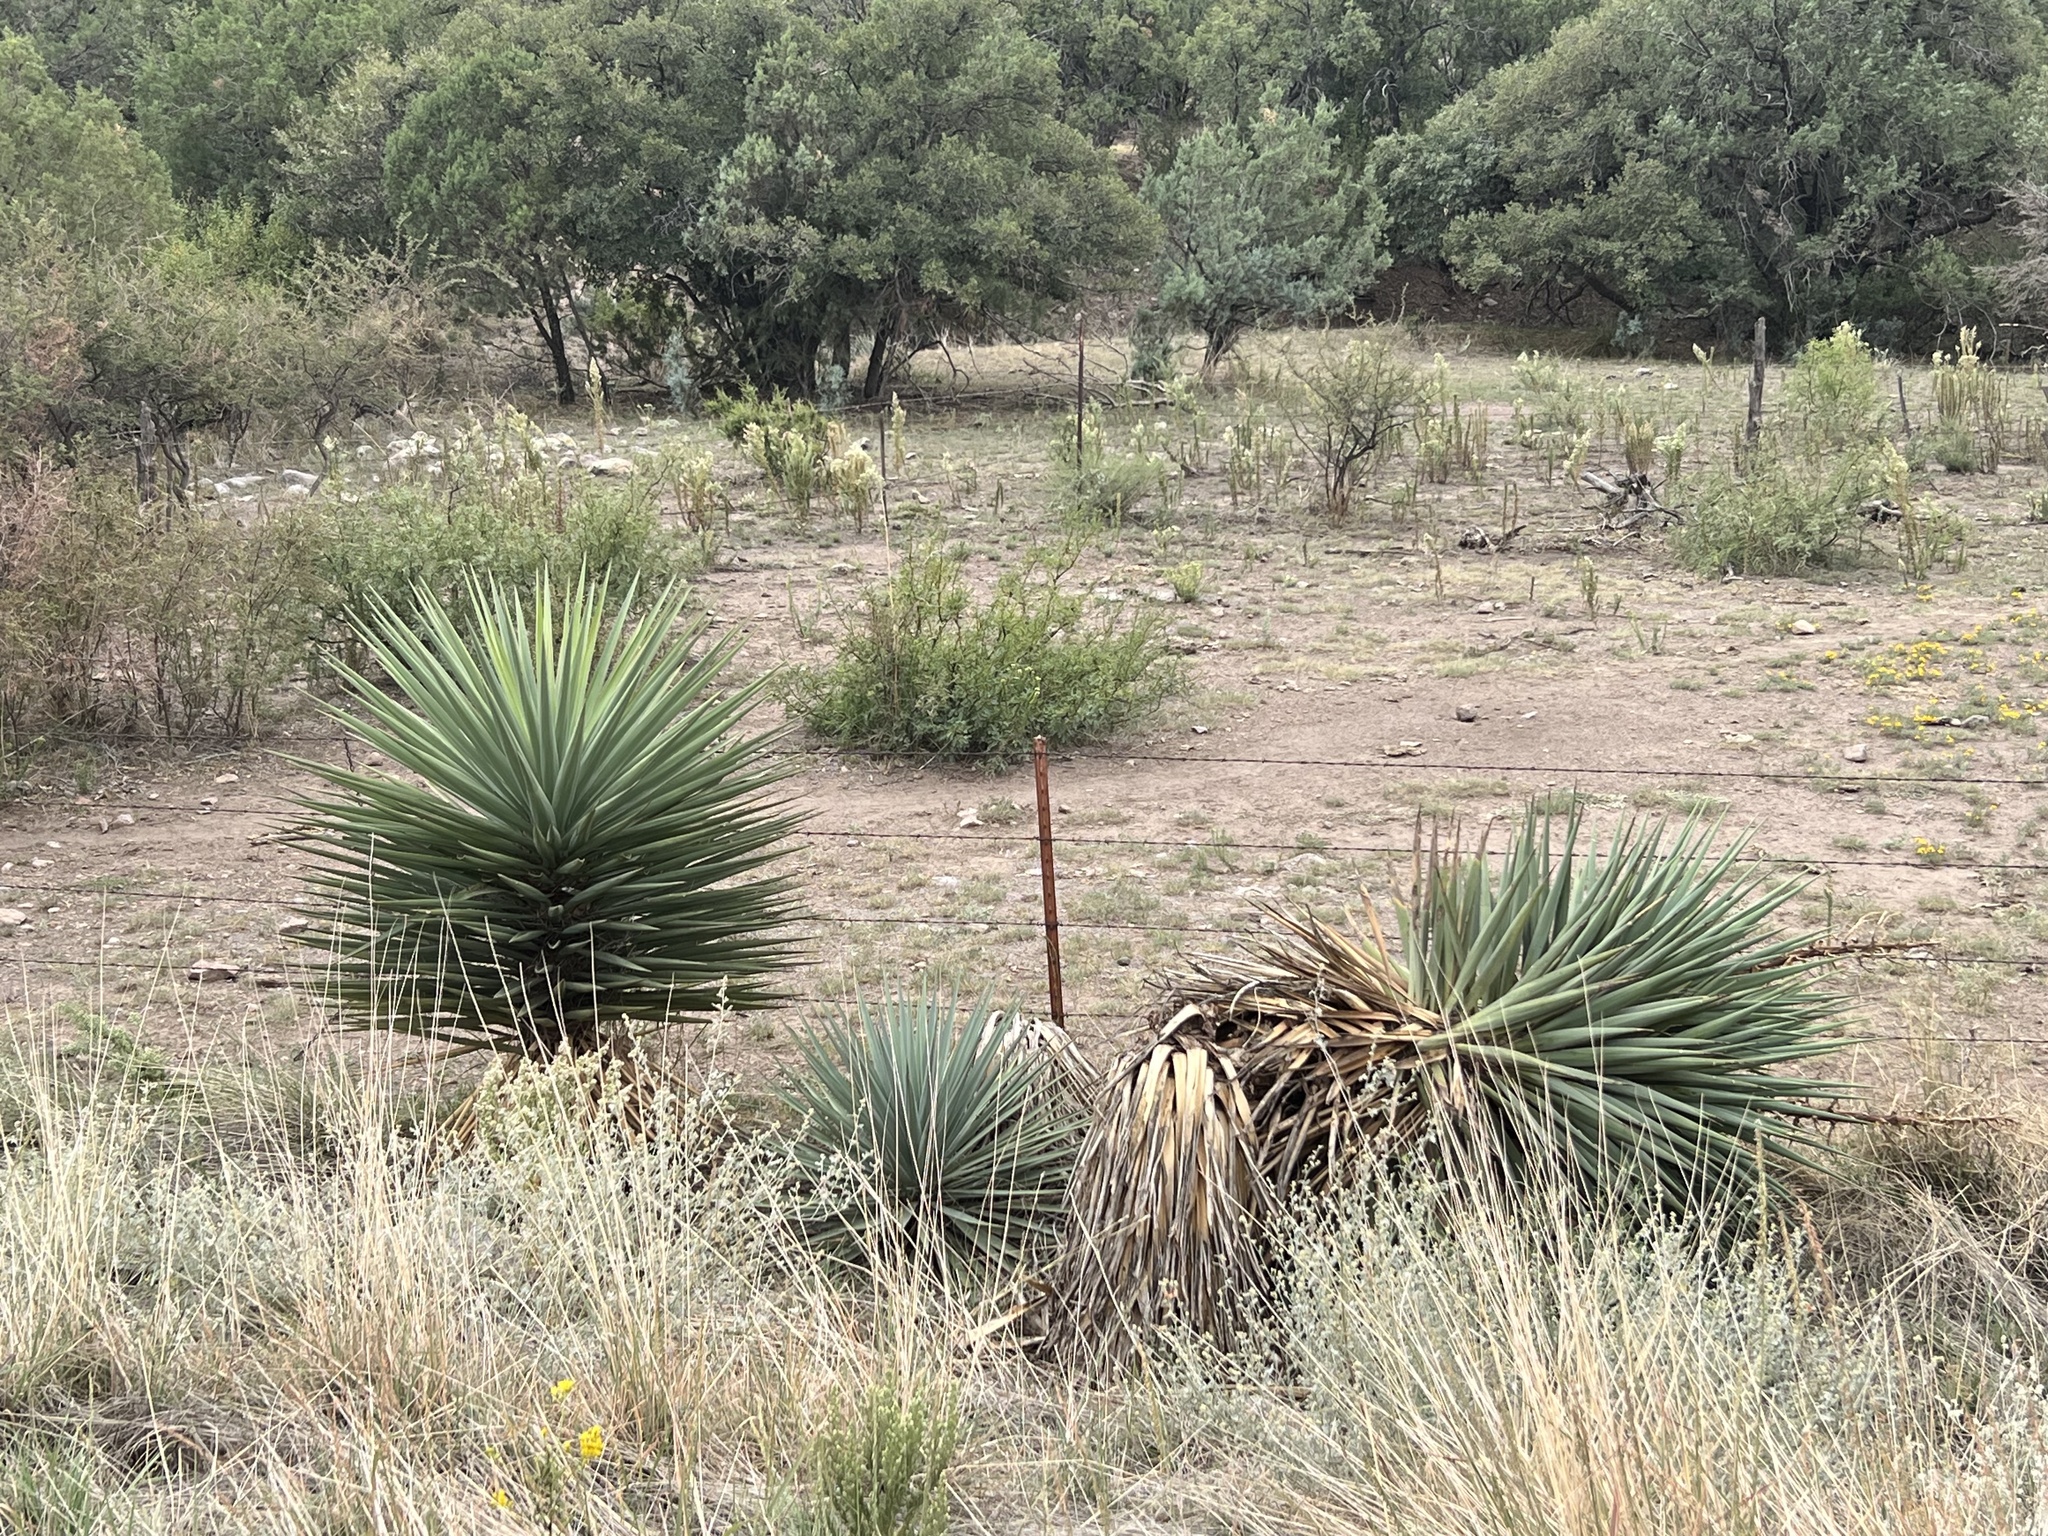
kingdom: Plantae
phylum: Tracheophyta
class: Liliopsida
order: Asparagales
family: Asparagaceae
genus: Yucca
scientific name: Yucca madrensis
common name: Hoary yucca
